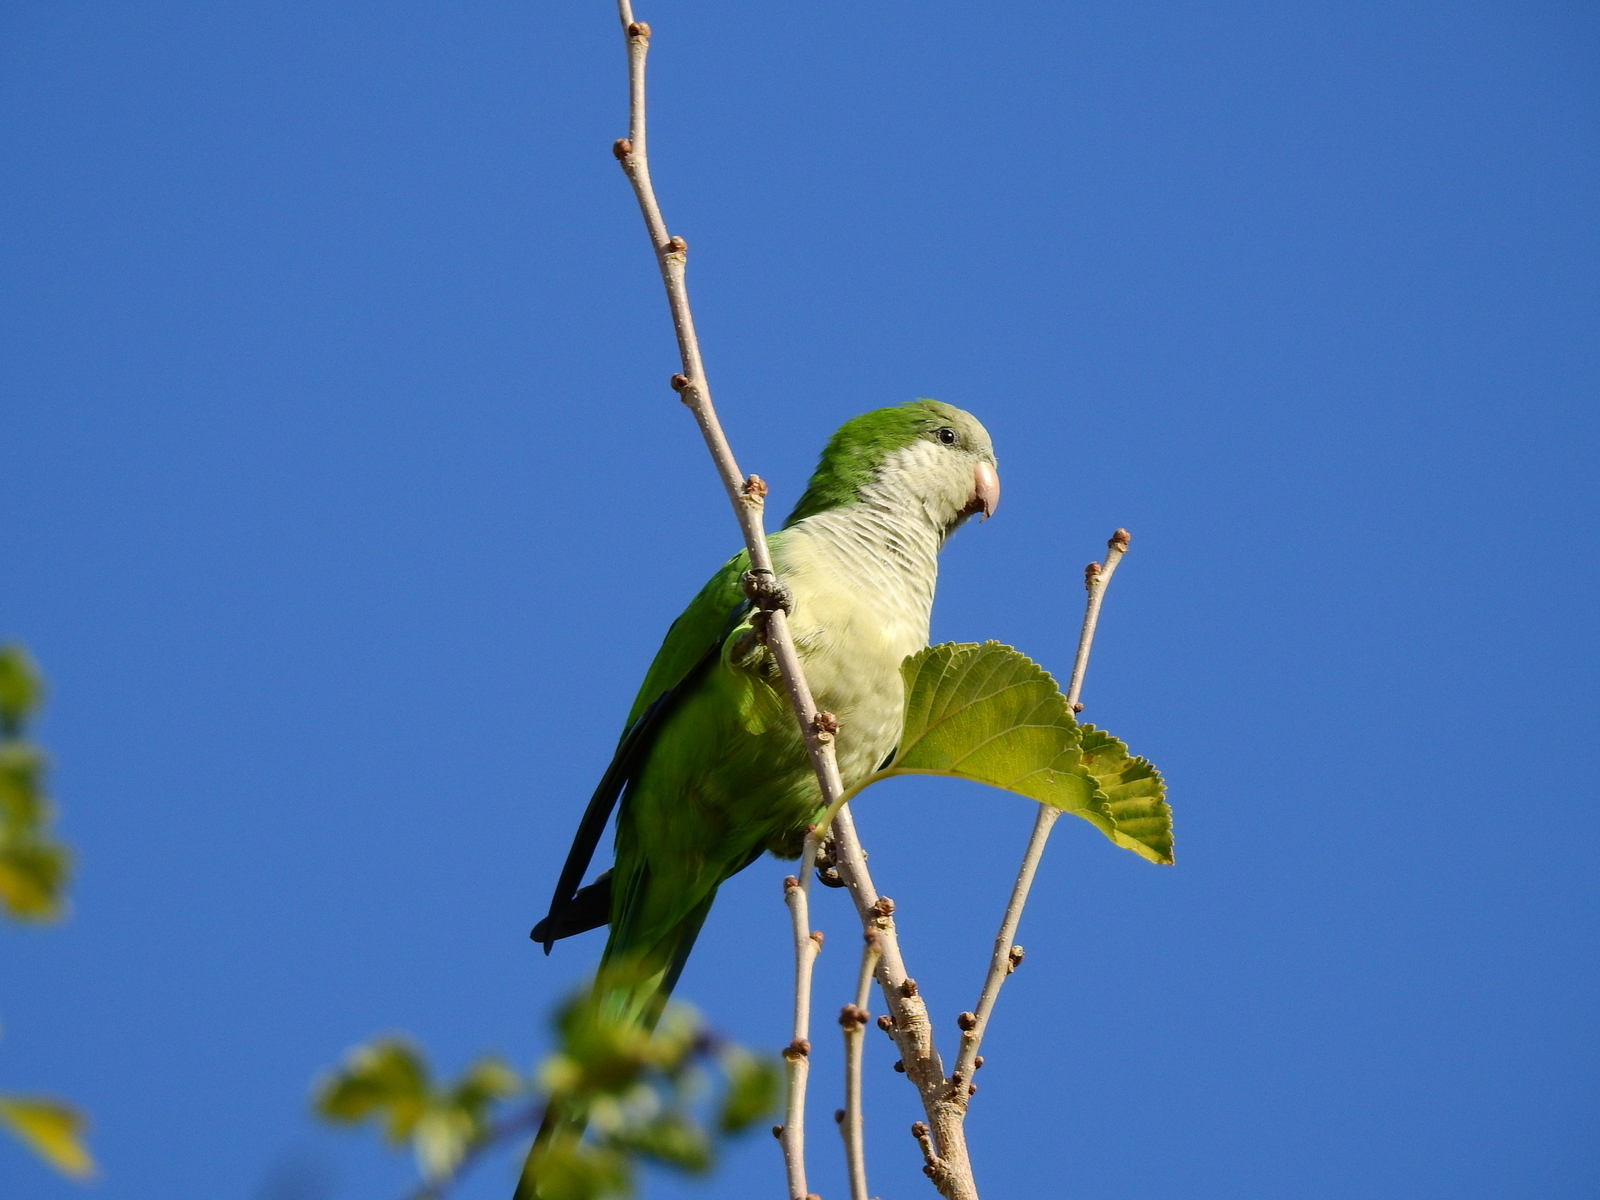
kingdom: Animalia
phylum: Chordata
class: Aves
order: Psittaciformes
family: Psittacidae
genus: Myiopsitta
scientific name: Myiopsitta monachus
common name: Monk parakeet
